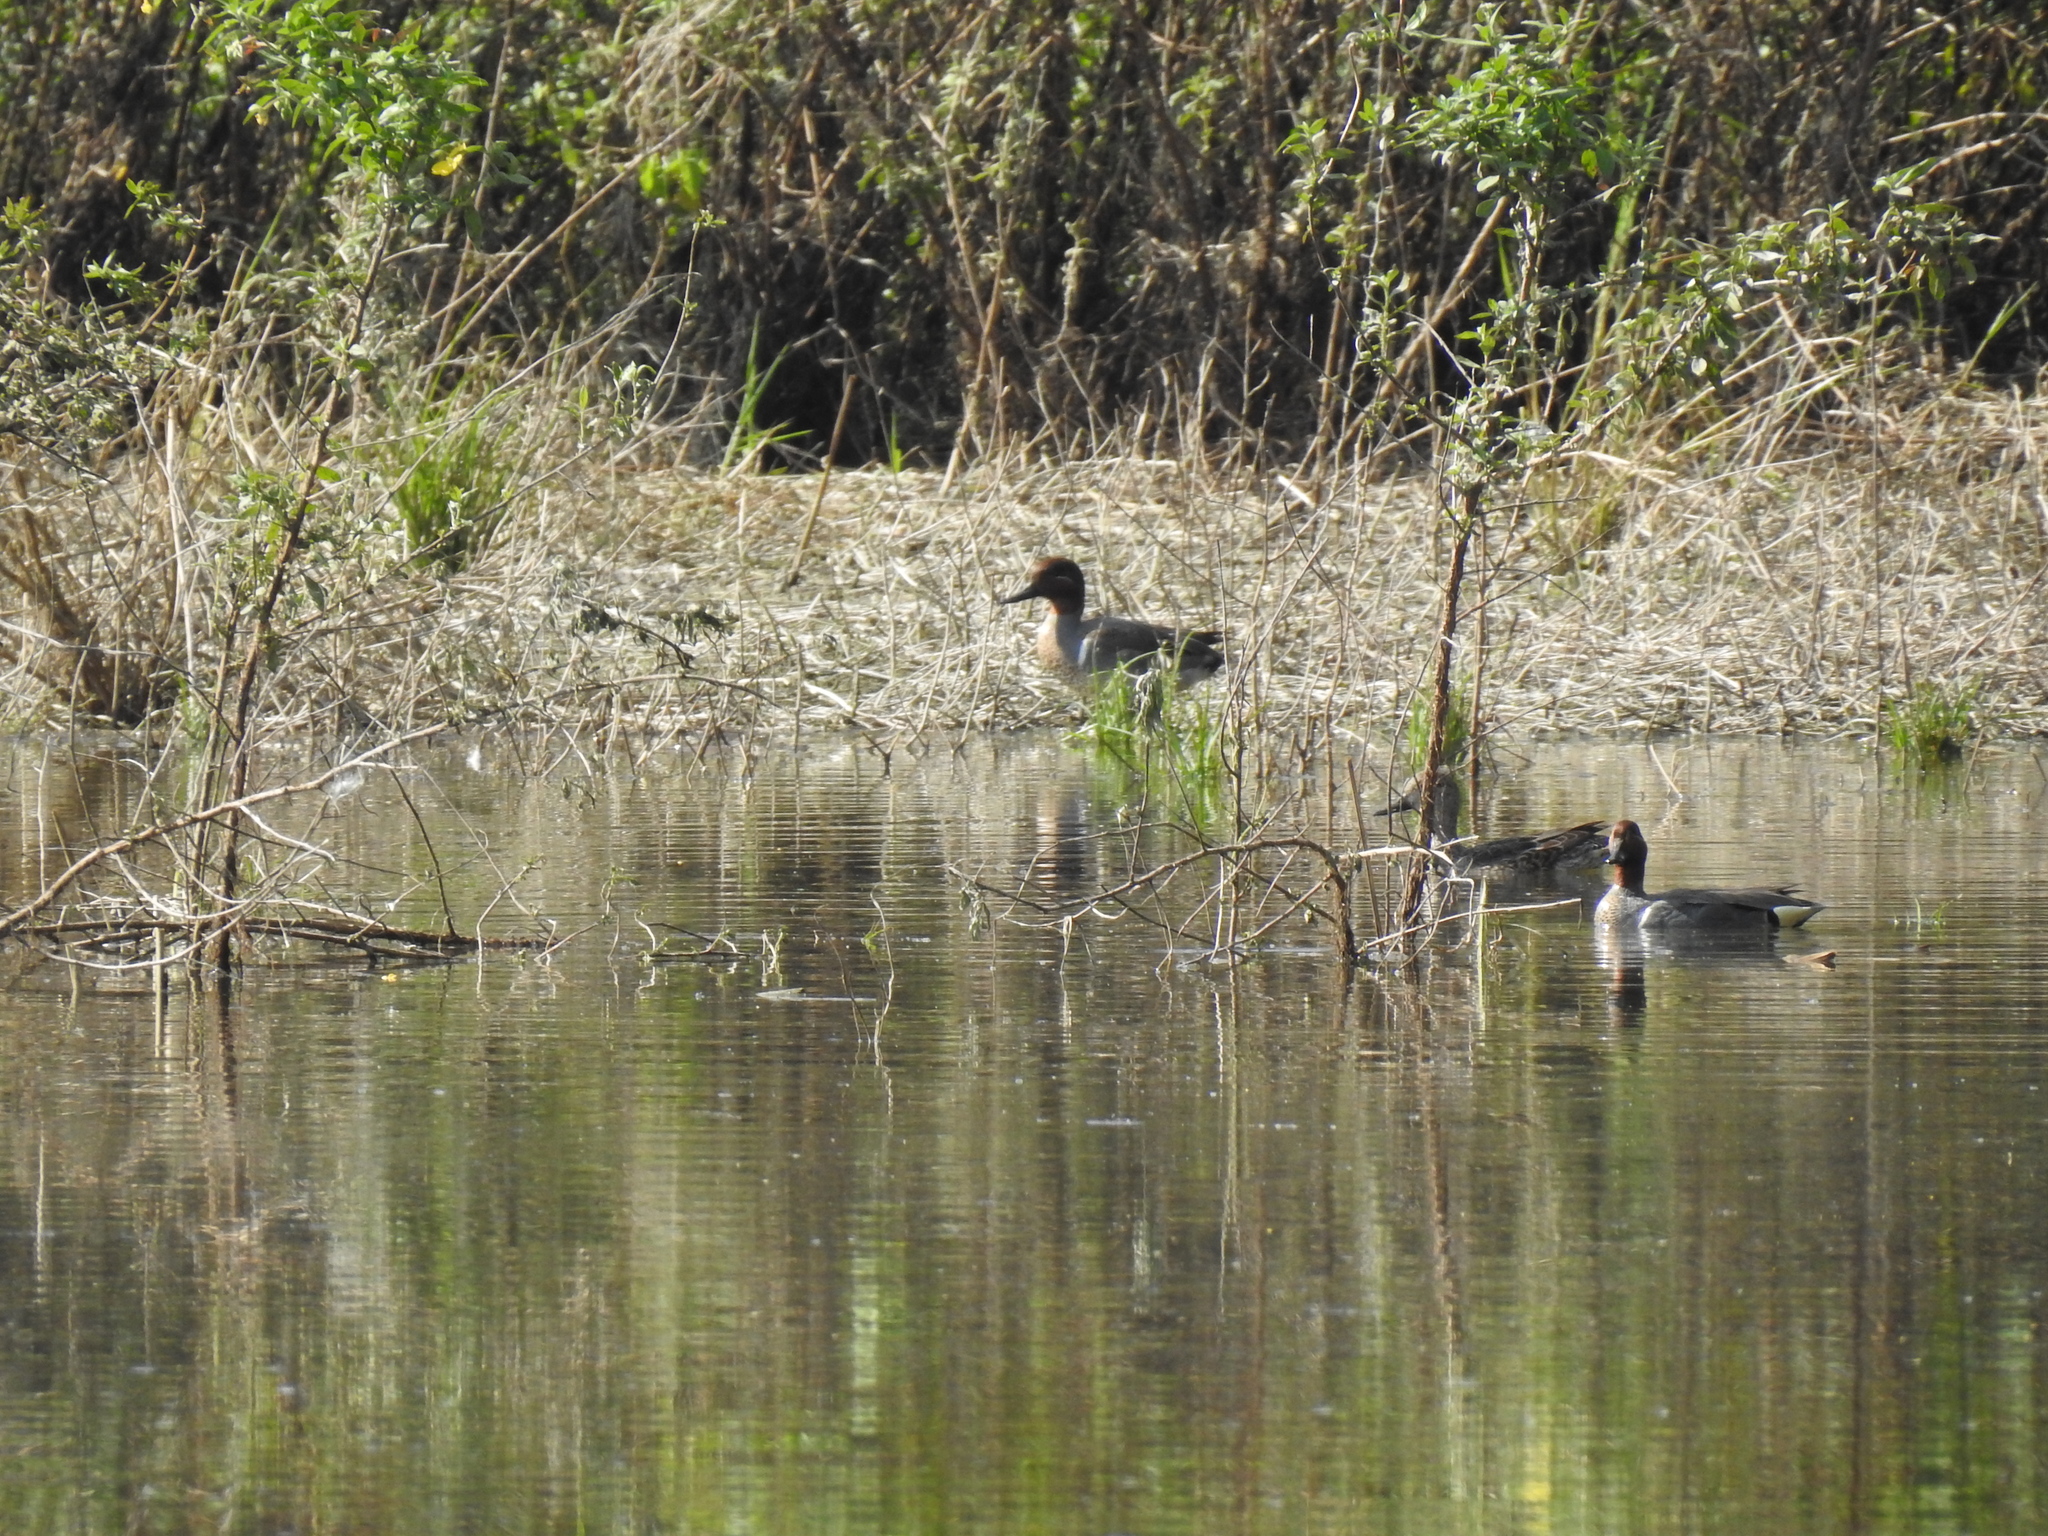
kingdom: Animalia
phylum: Chordata
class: Aves
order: Anseriformes
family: Anatidae
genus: Anas
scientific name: Anas crecca
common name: Eurasian teal
